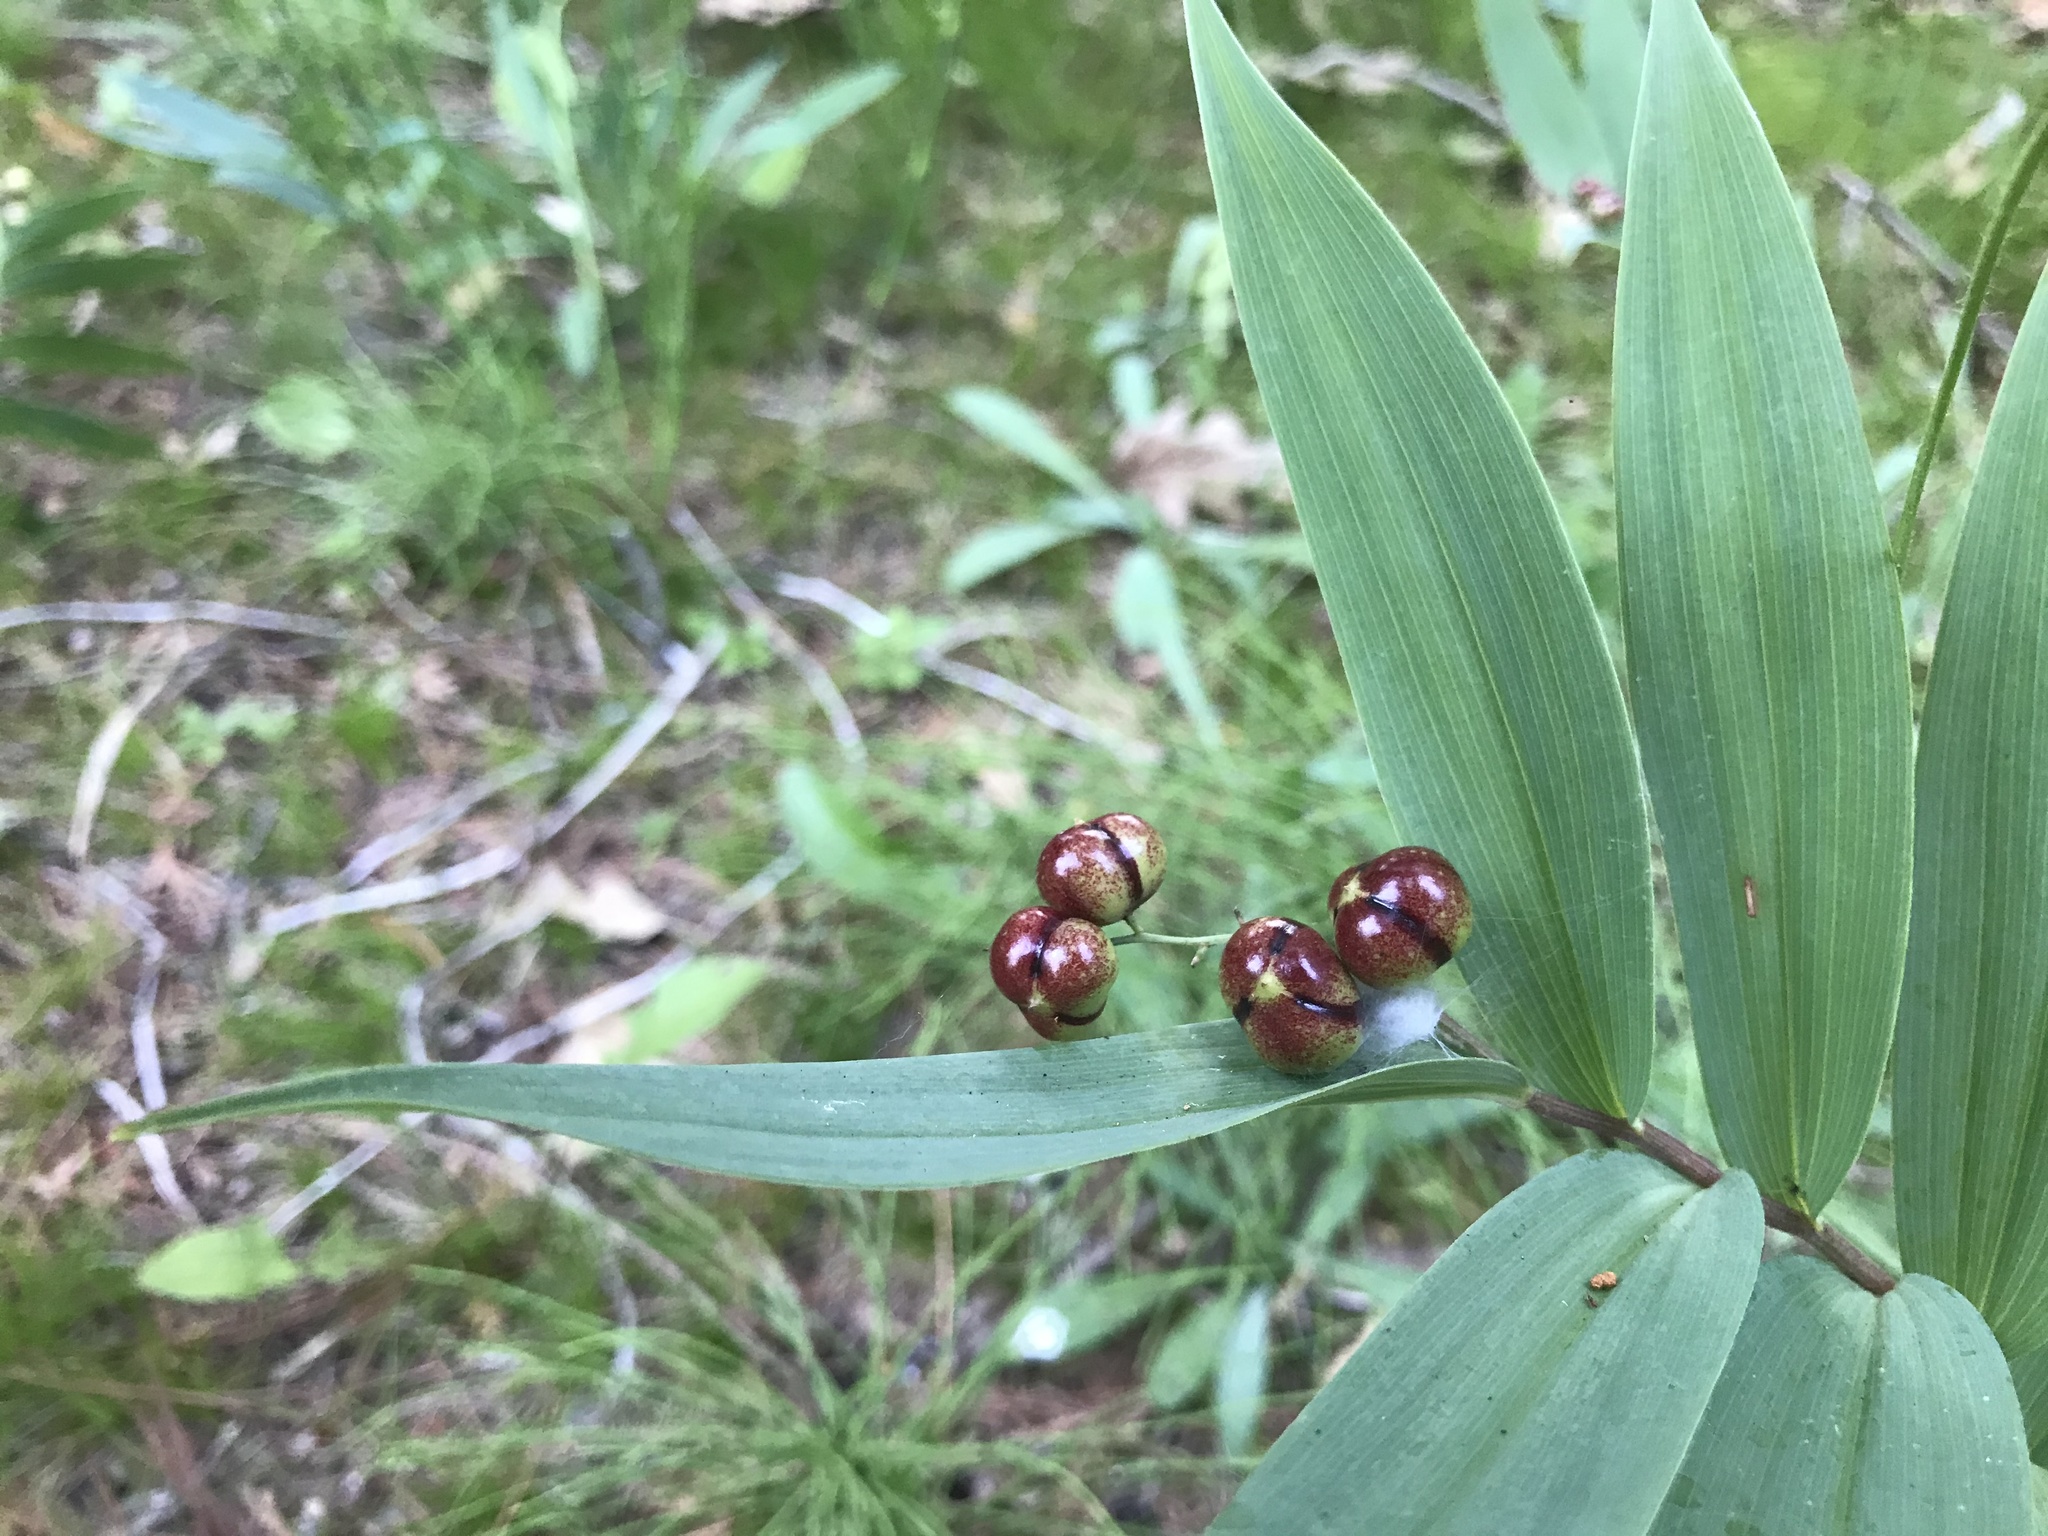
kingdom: Plantae
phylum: Tracheophyta
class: Liliopsida
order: Asparagales
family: Asparagaceae
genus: Maianthemum
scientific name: Maianthemum stellatum
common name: Little false solomon's seal
